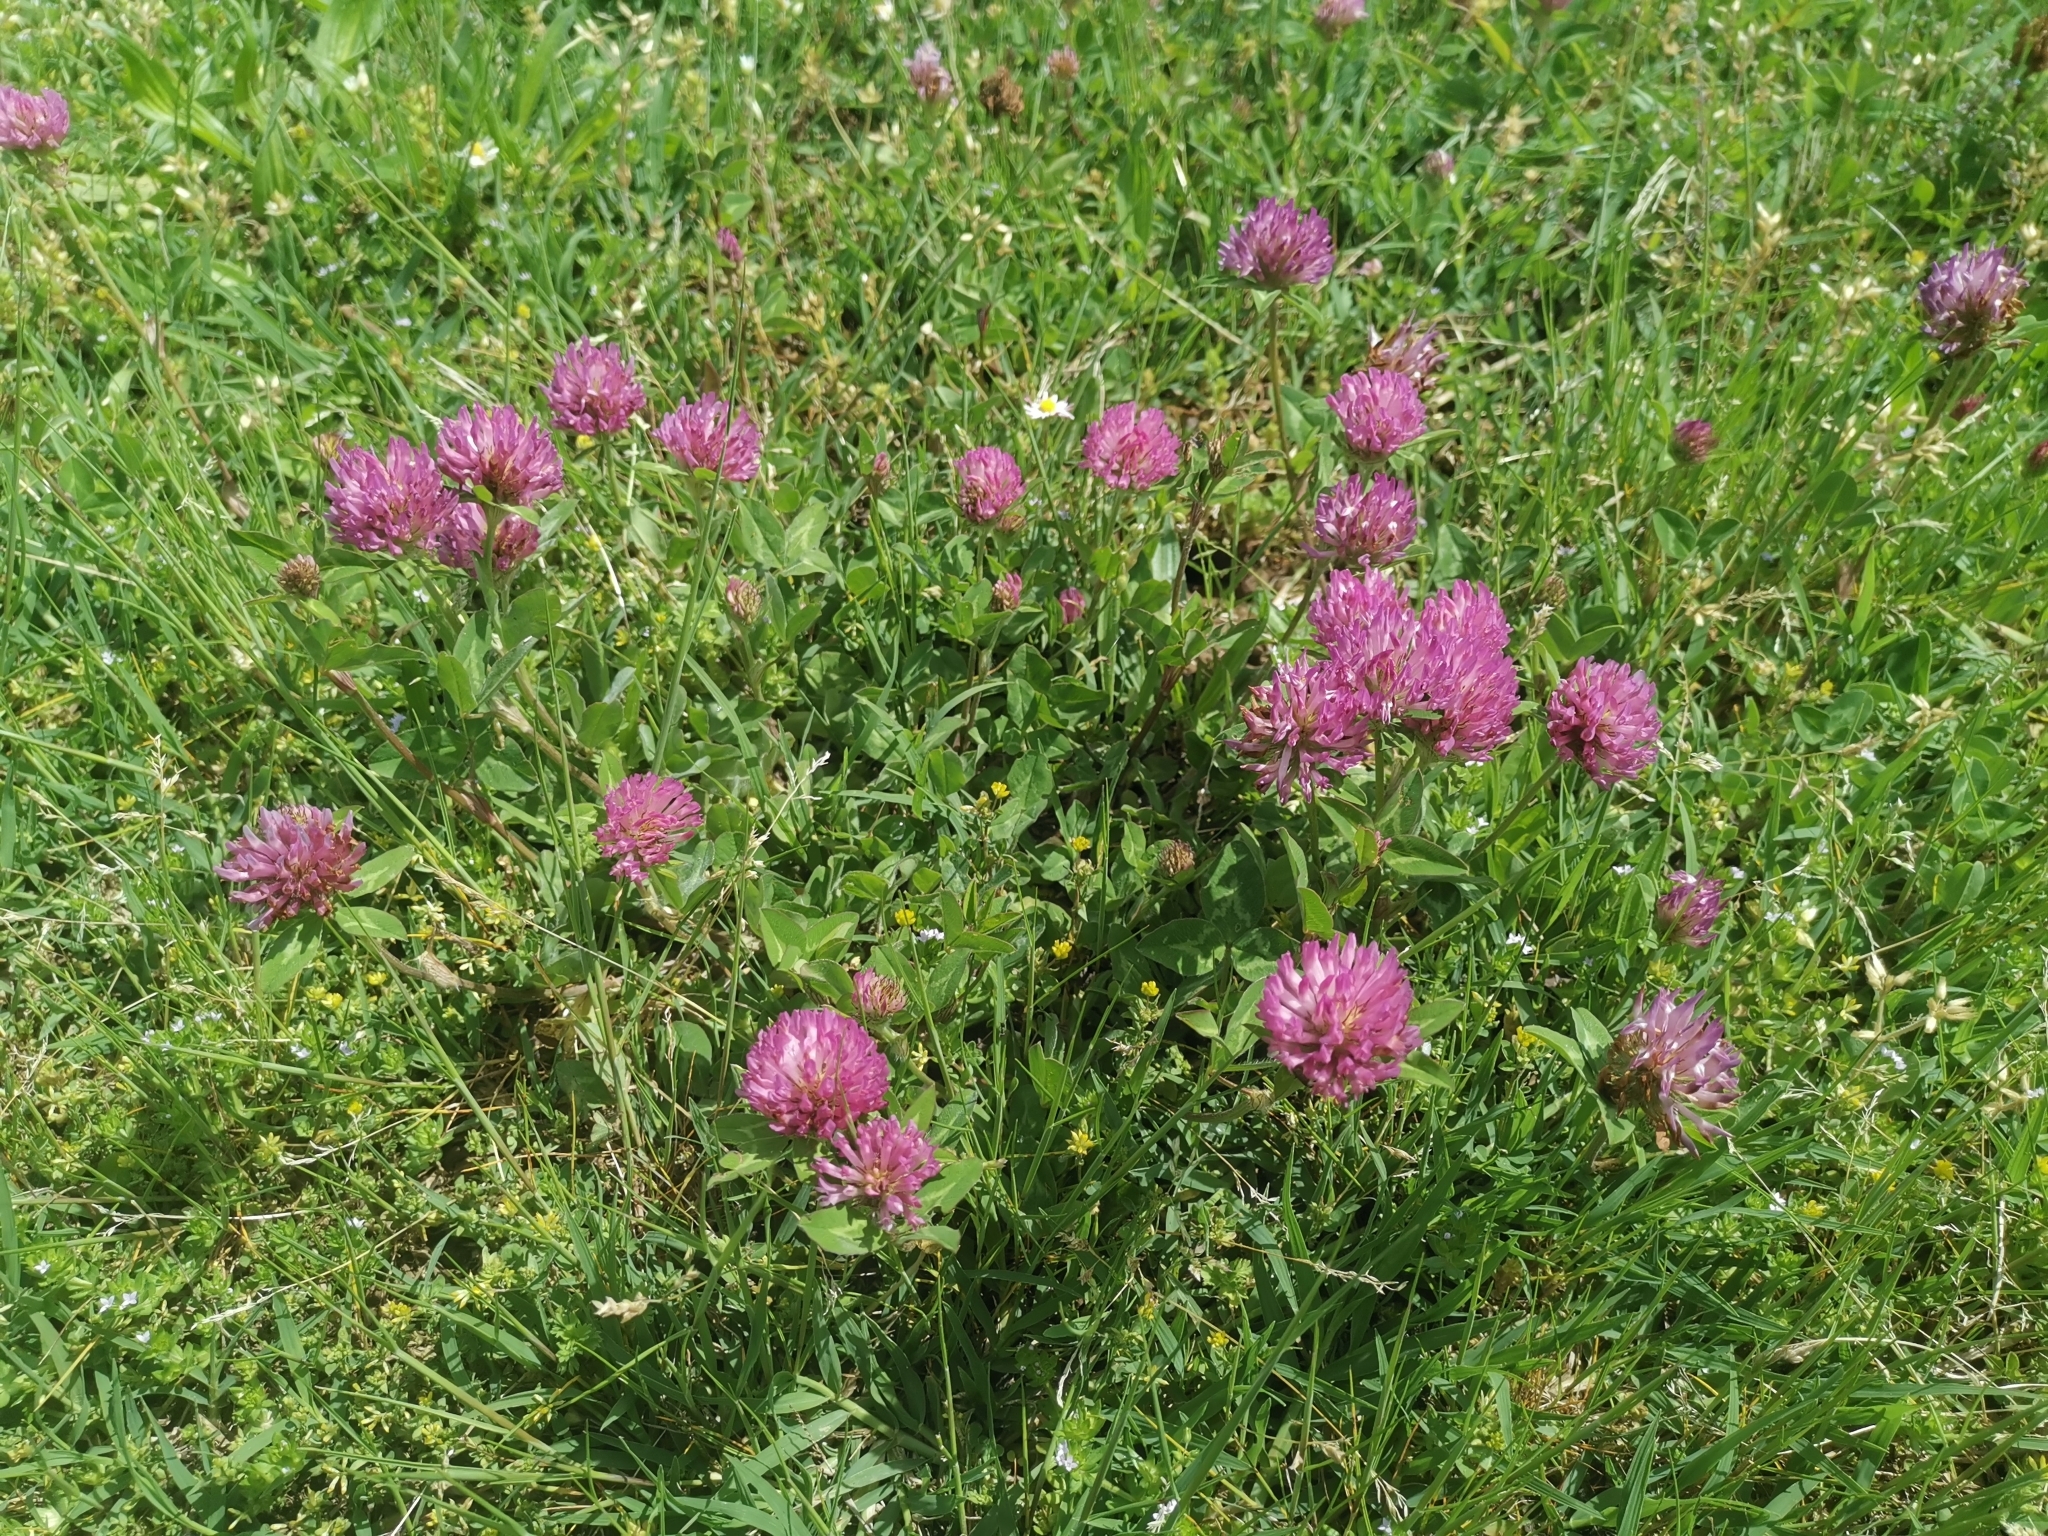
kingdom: Plantae
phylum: Tracheophyta
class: Magnoliopsida
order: Fabales
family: Fabaceae
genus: Trifolium
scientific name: Trifolium pratense
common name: Red clover
